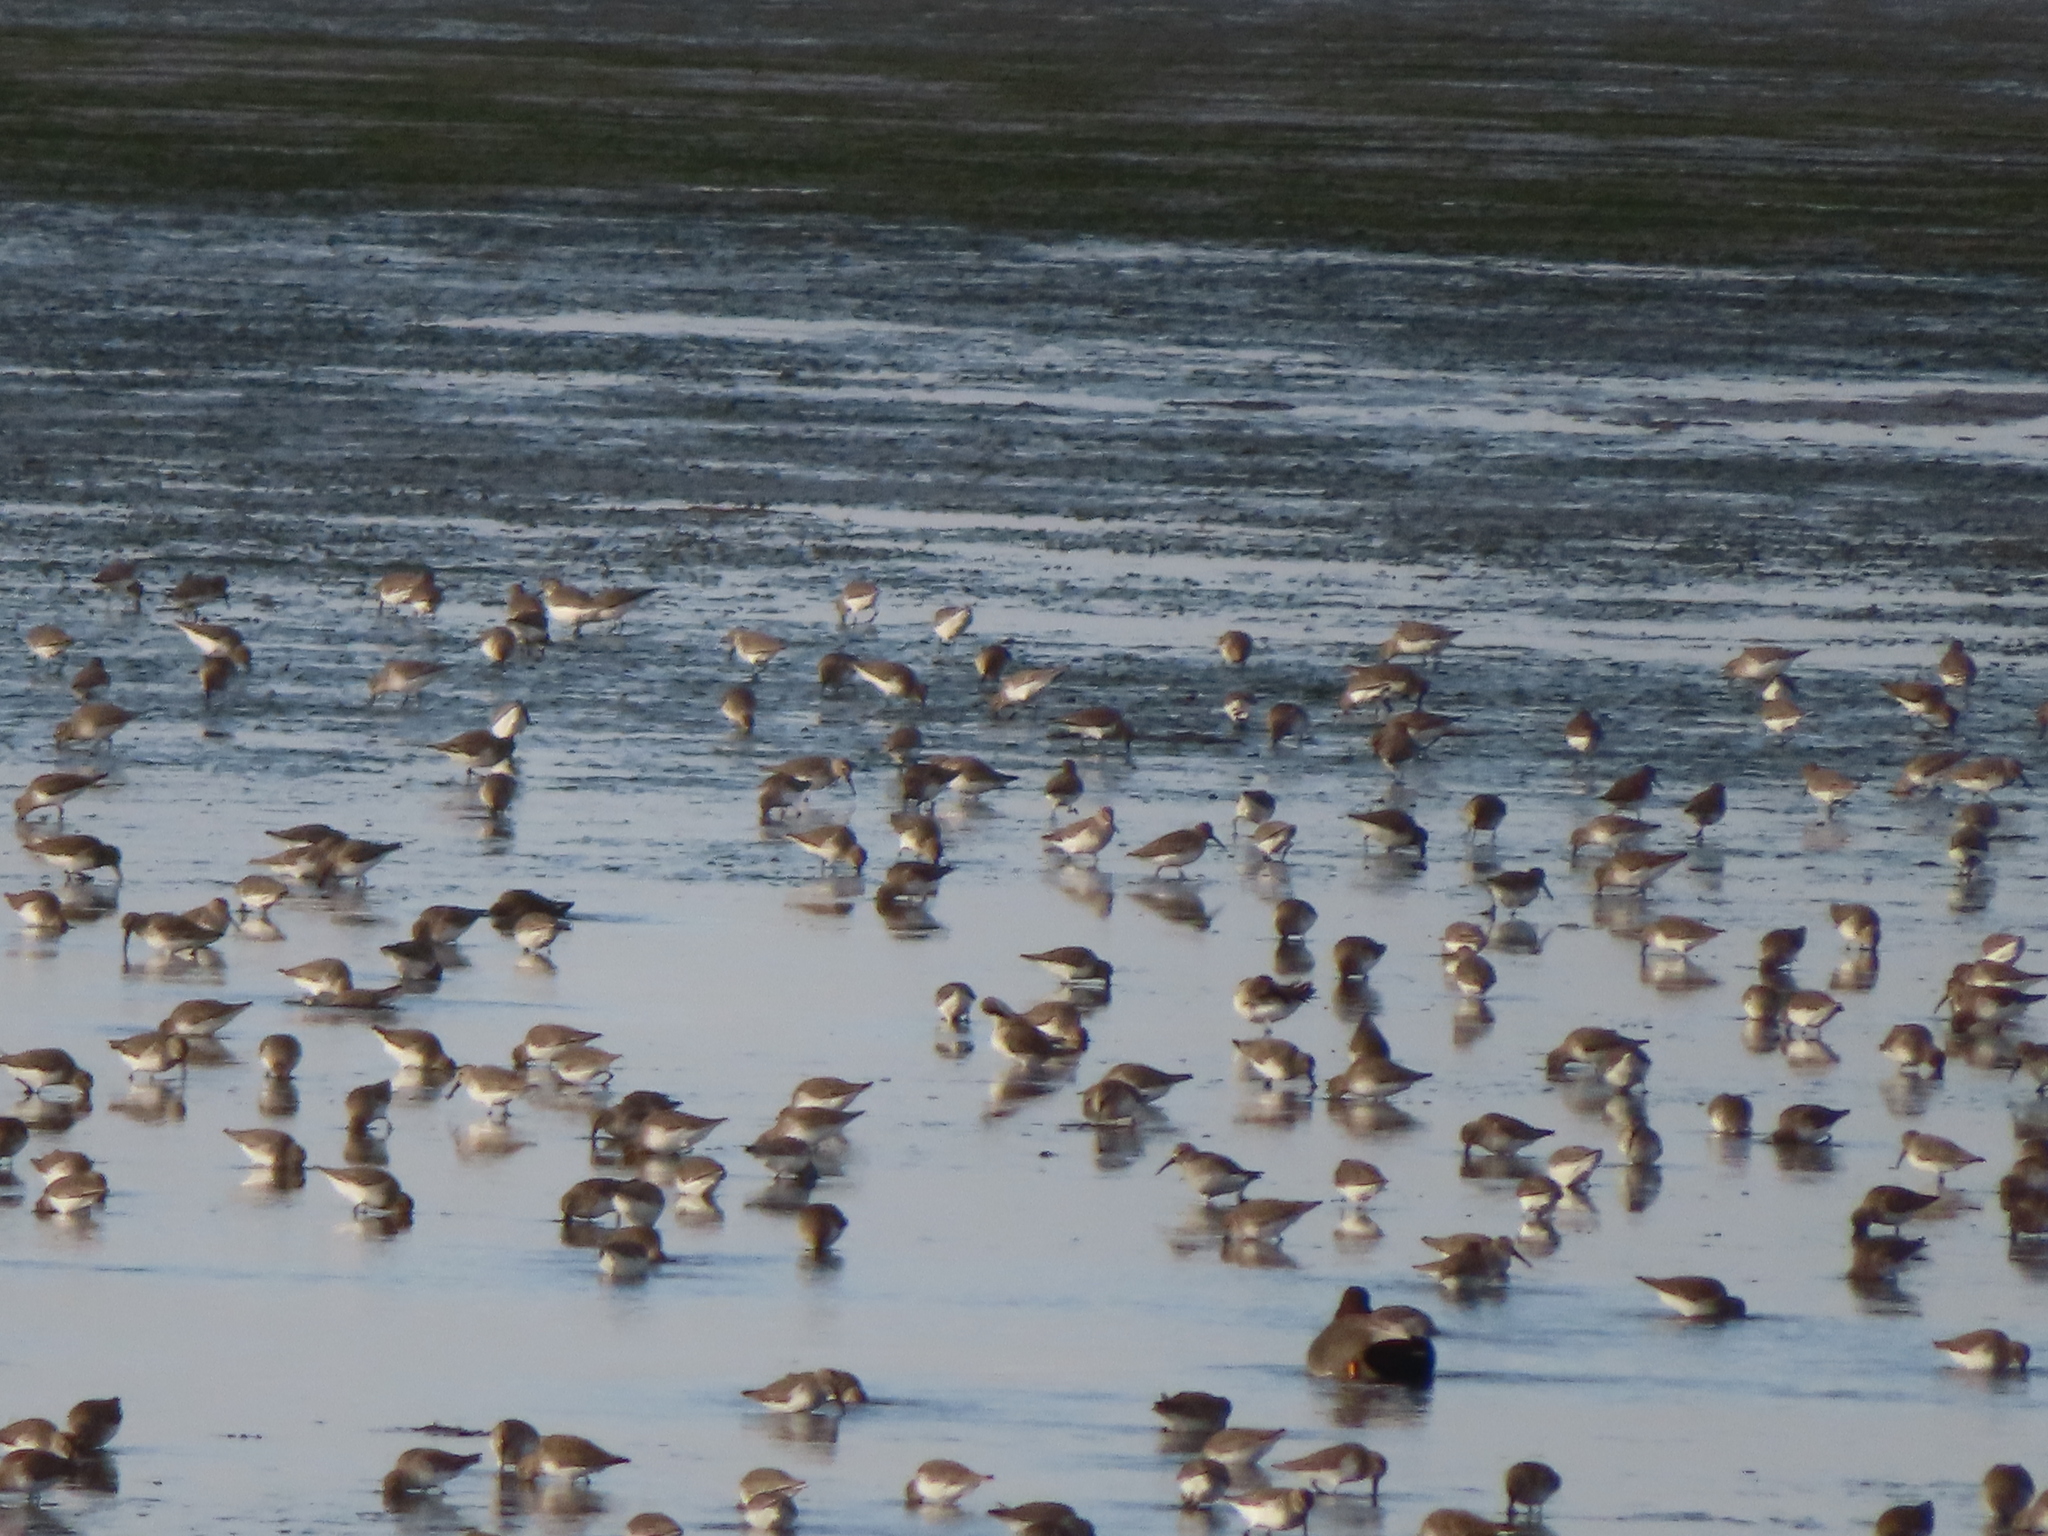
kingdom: Animalia
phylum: Chordata
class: Aves
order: Charadriiformes
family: Scolopacidae
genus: Calidris
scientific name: Calidris alpina
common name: Dunlin
